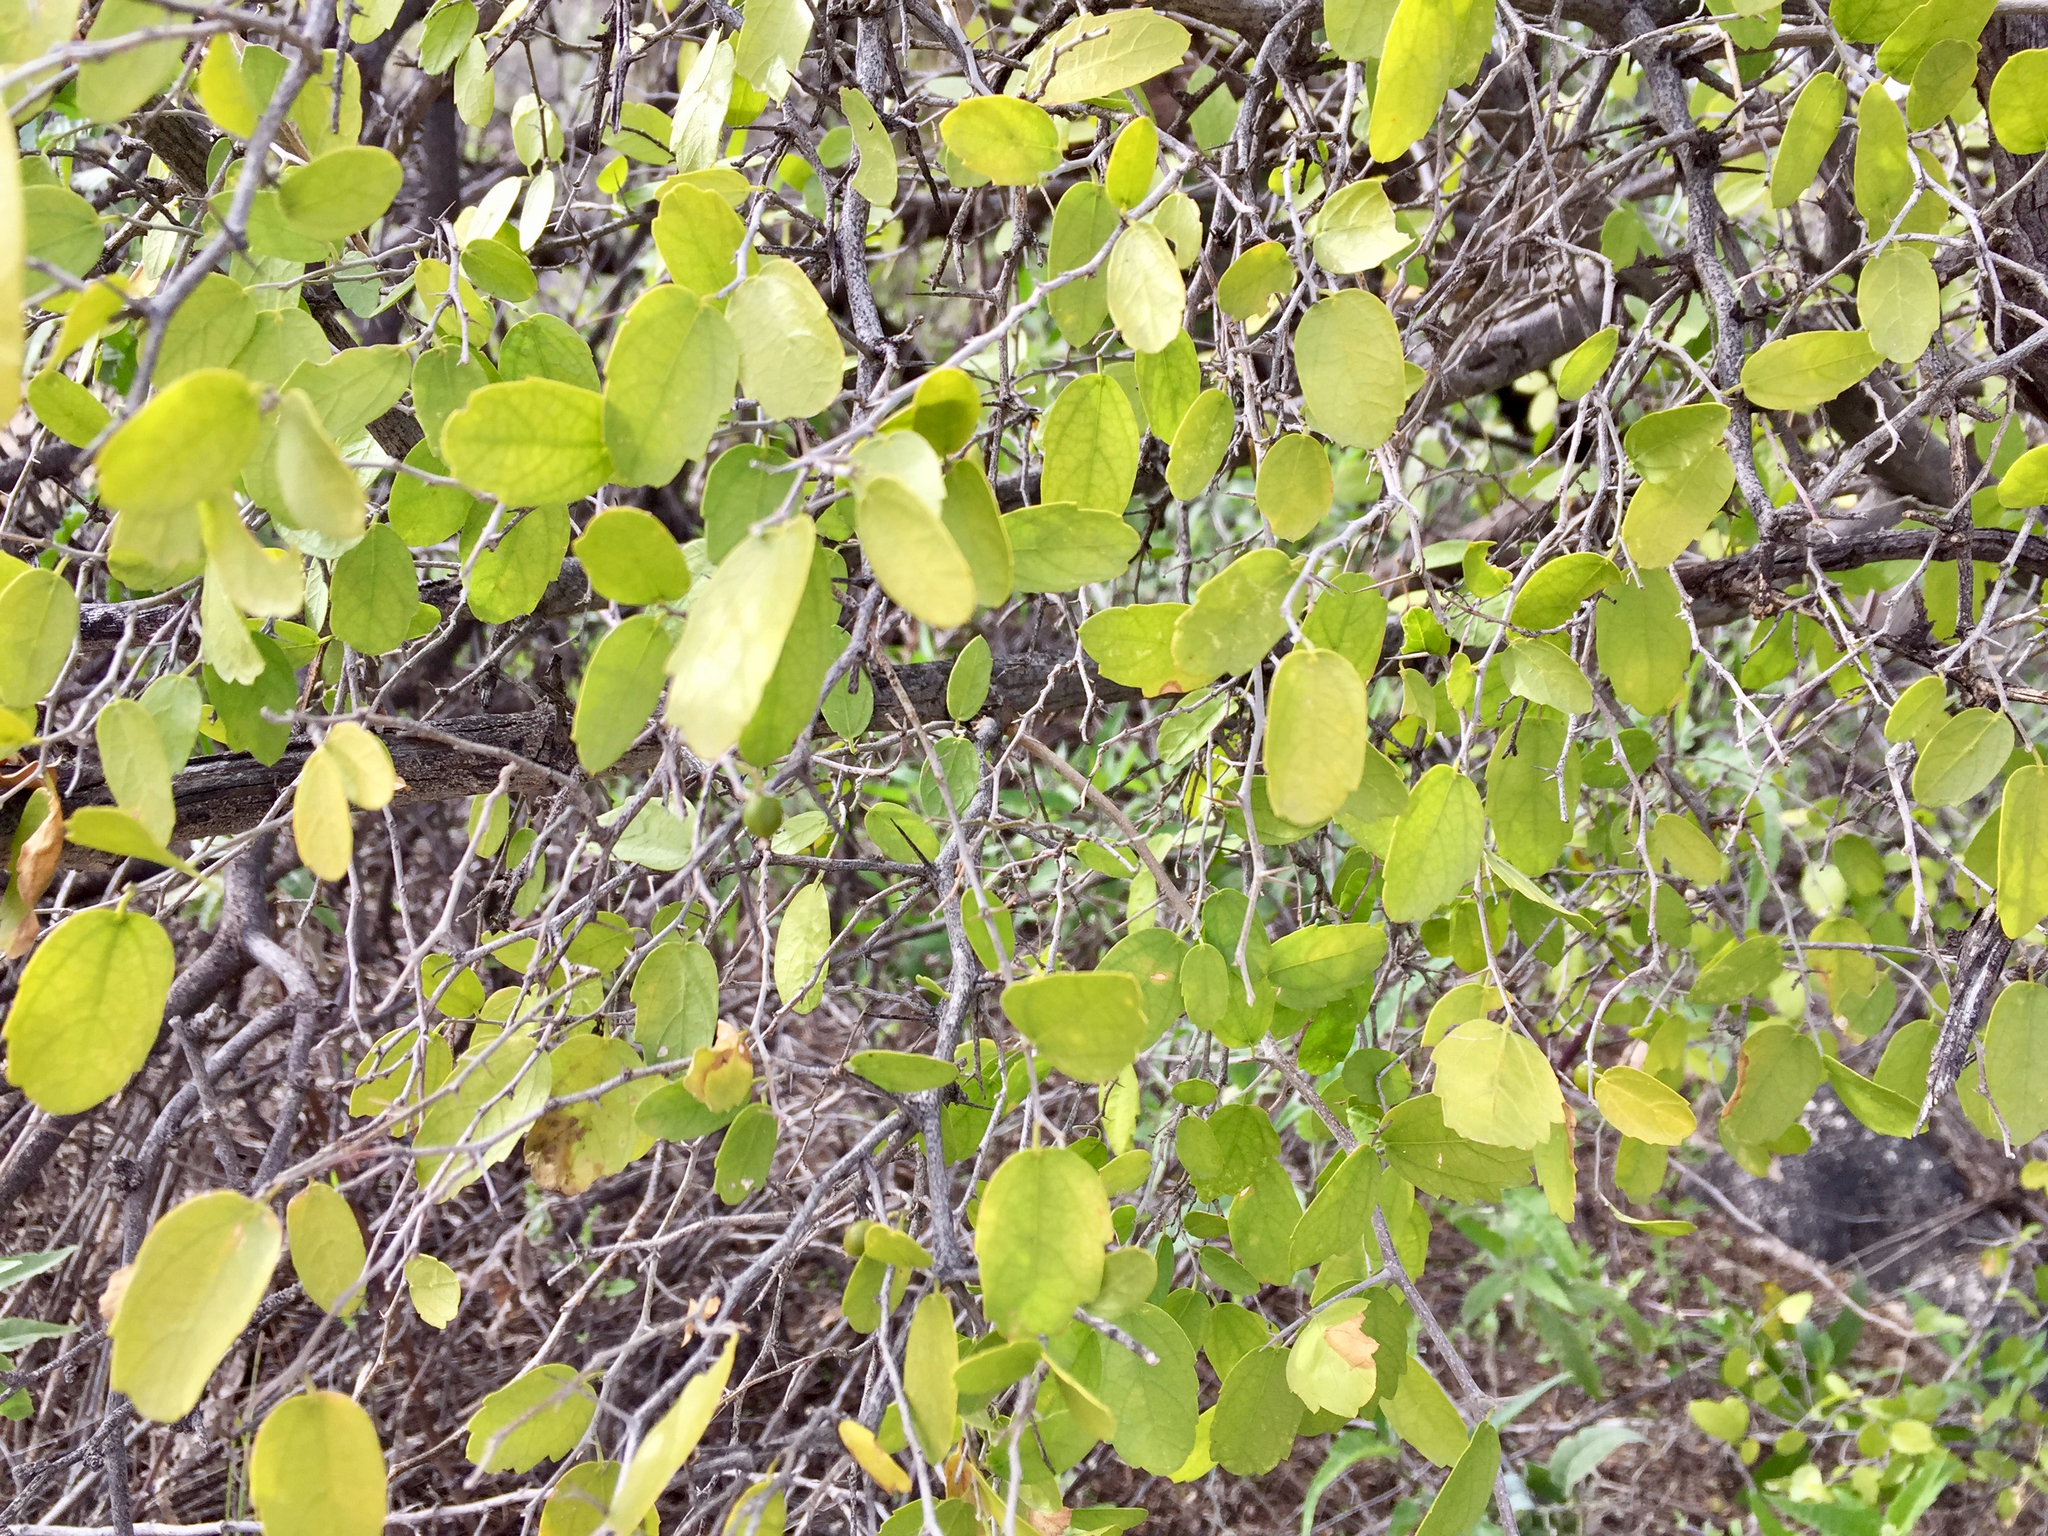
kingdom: Plantae
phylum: Tracheophyta
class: Magnoliopsida
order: Rosales
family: Cannabaceae
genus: Celtis
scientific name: Celtis pallida
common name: Desert hackberry
